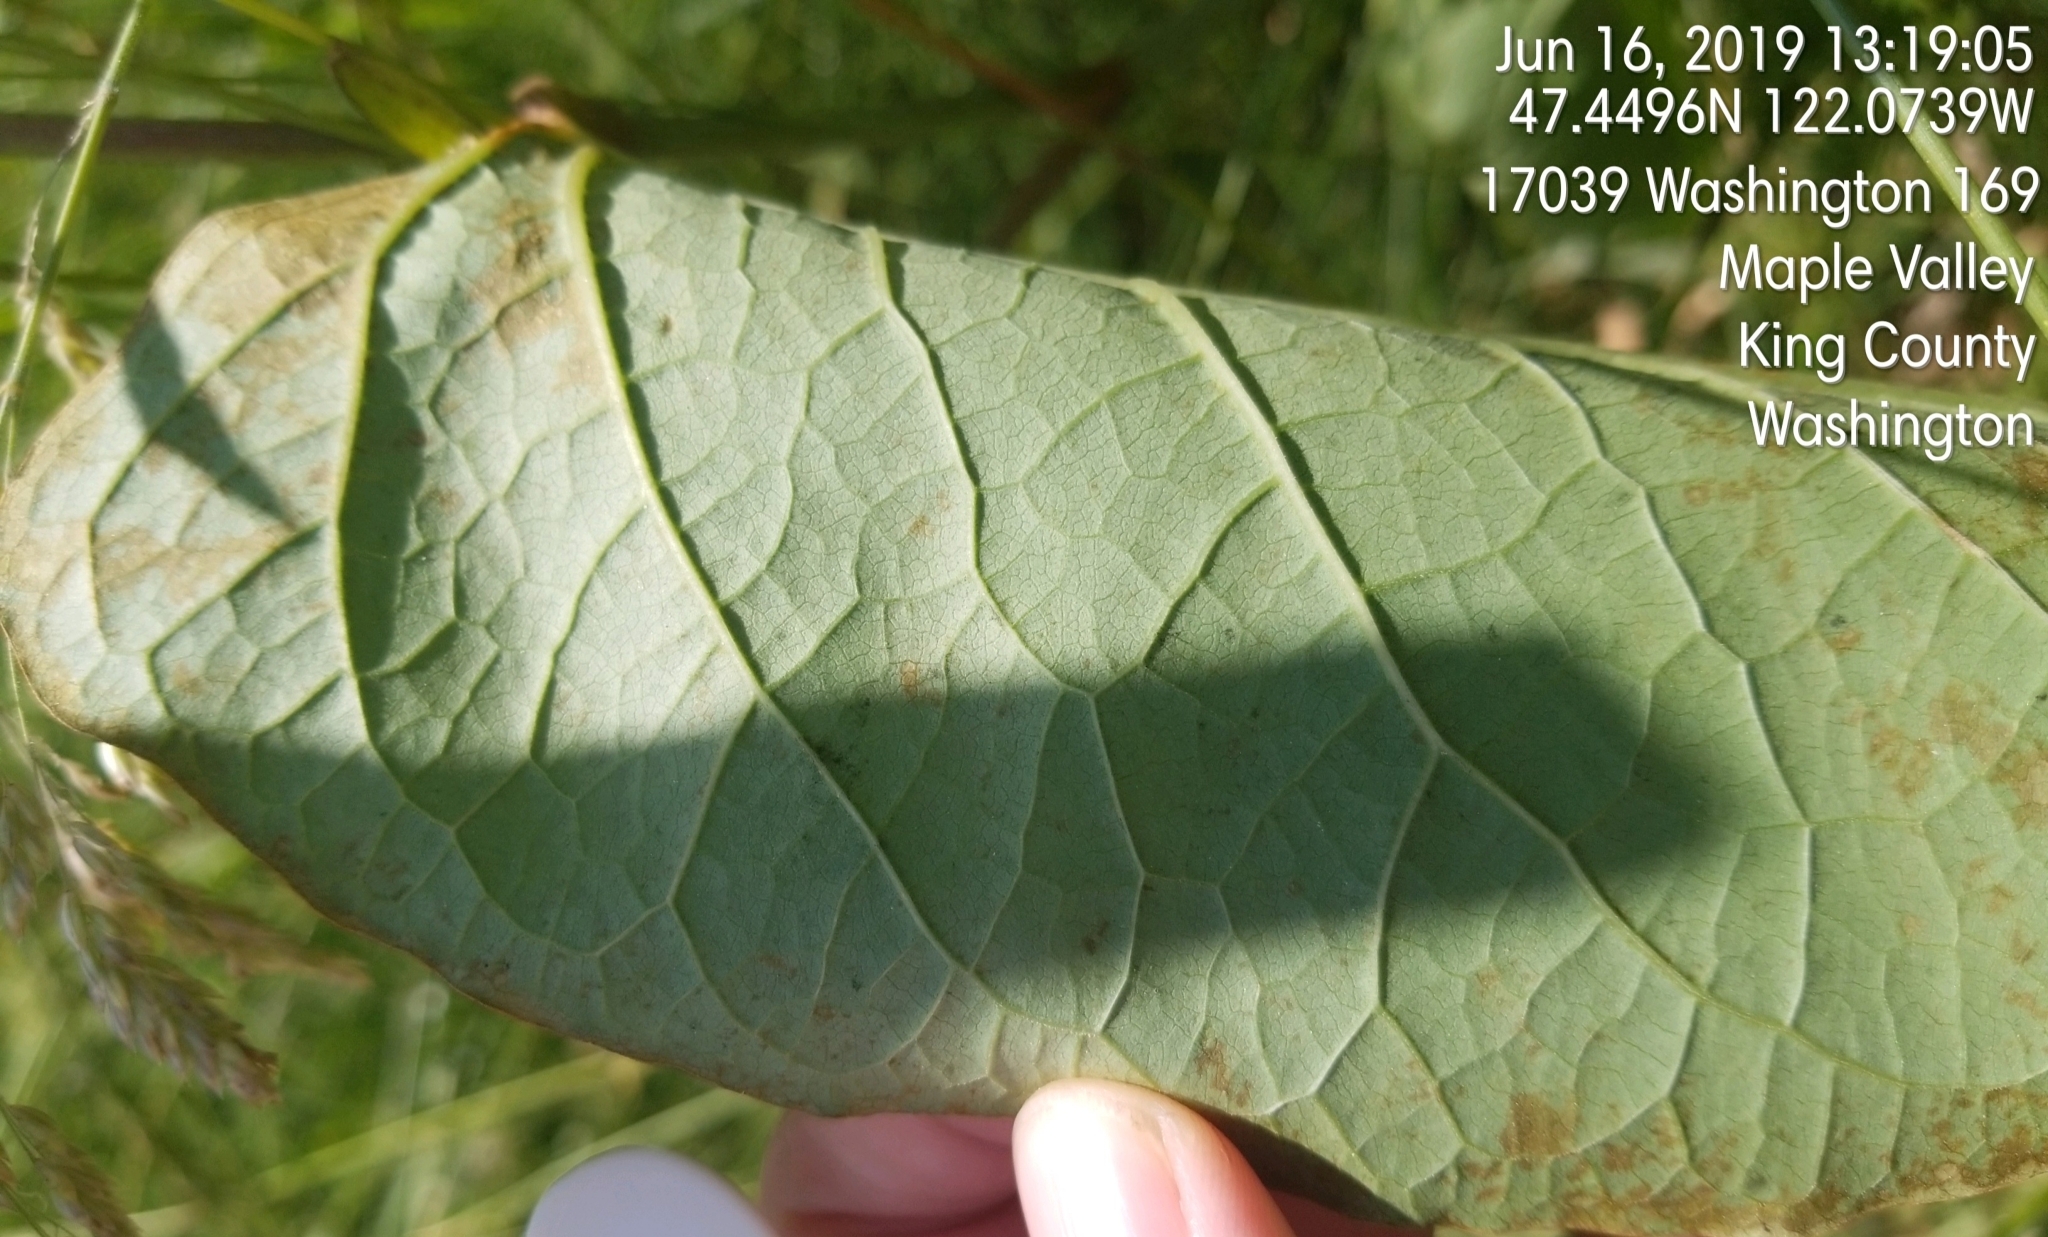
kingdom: Plantae
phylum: Tracheophyta
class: Magnoliopsida
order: Caryophyllales
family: Polygonaceae
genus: Reynoutria
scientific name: Reynoutria bohemica
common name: Bohemian knotweed
